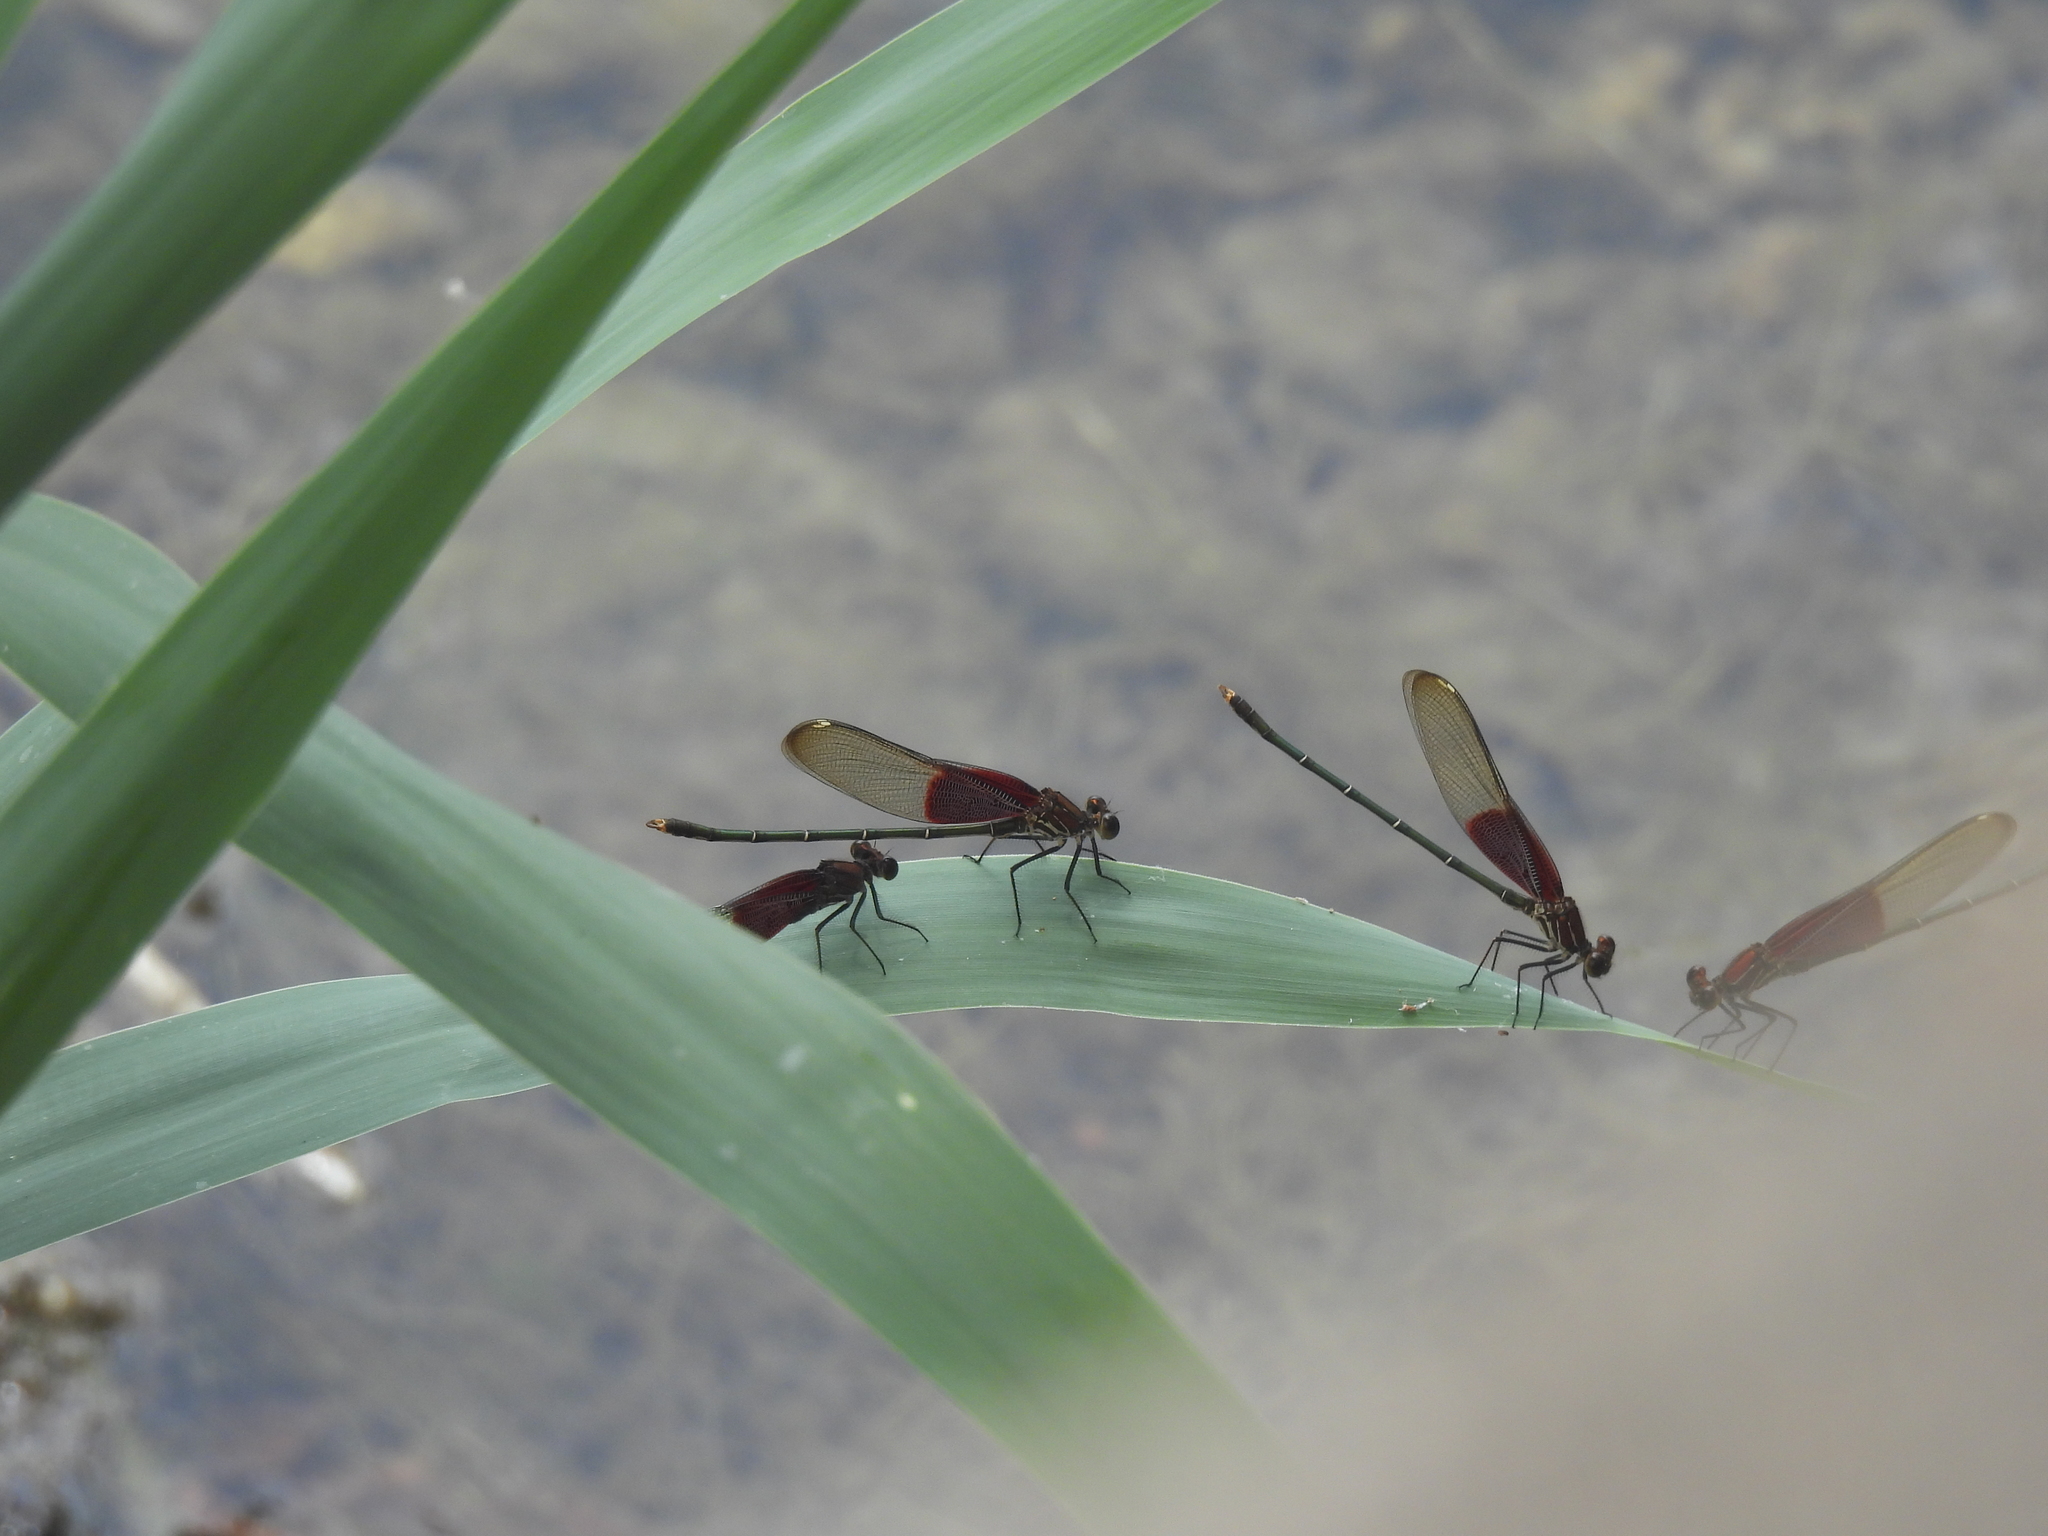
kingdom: Animalia
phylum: Arthropoda
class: Insecta
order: Odonata
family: Calopterygidae
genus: Hetaerina
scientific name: Hetaerina americana
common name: American rubyspot
